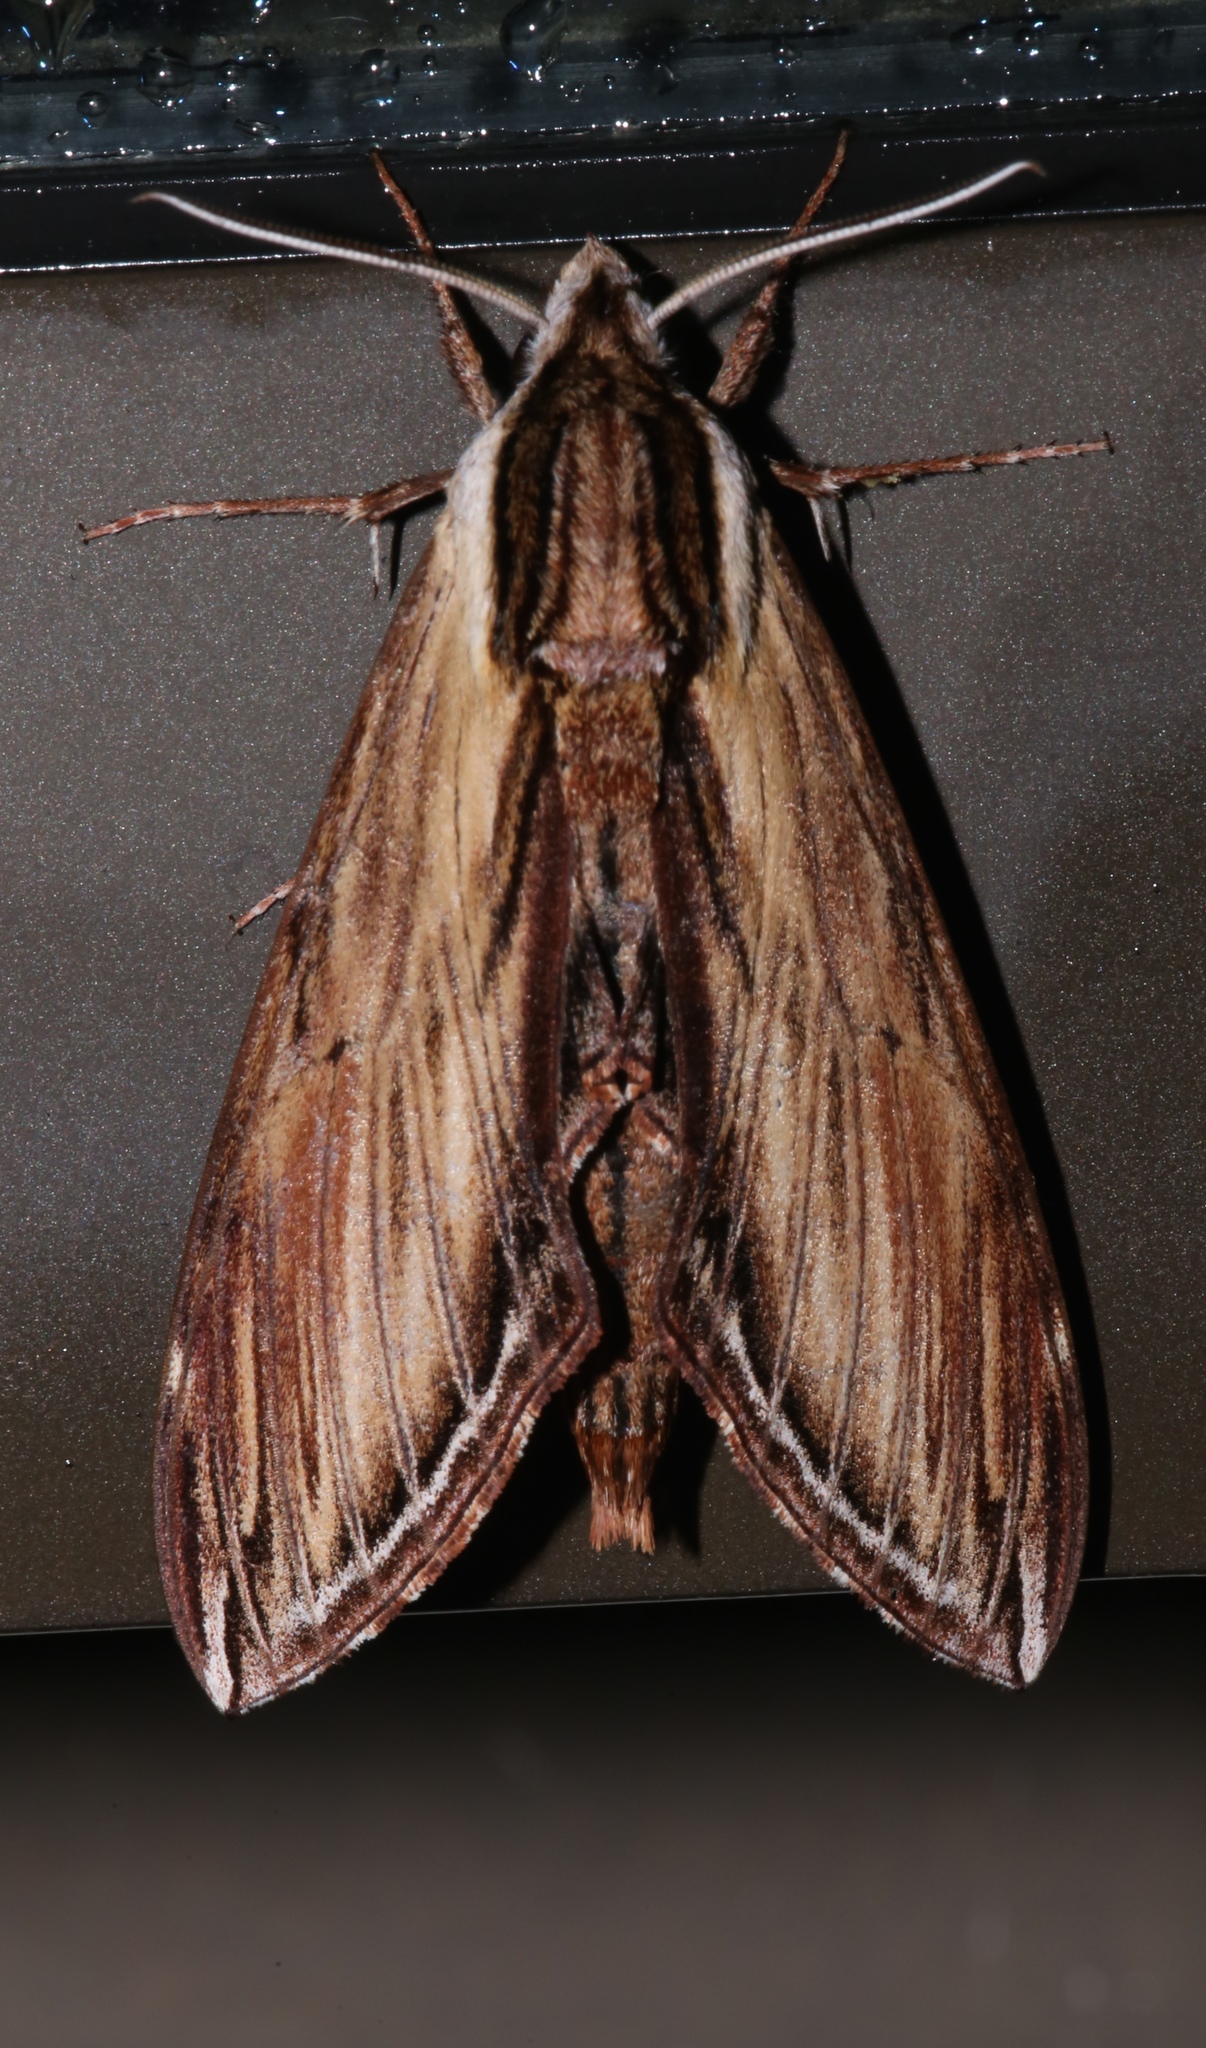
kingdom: Animalia
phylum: Arthropoda
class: Insecta
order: Lepidoptera
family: Sphingidae
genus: Sphinx
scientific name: Sphinx kalmiae
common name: Laurel sphinx
